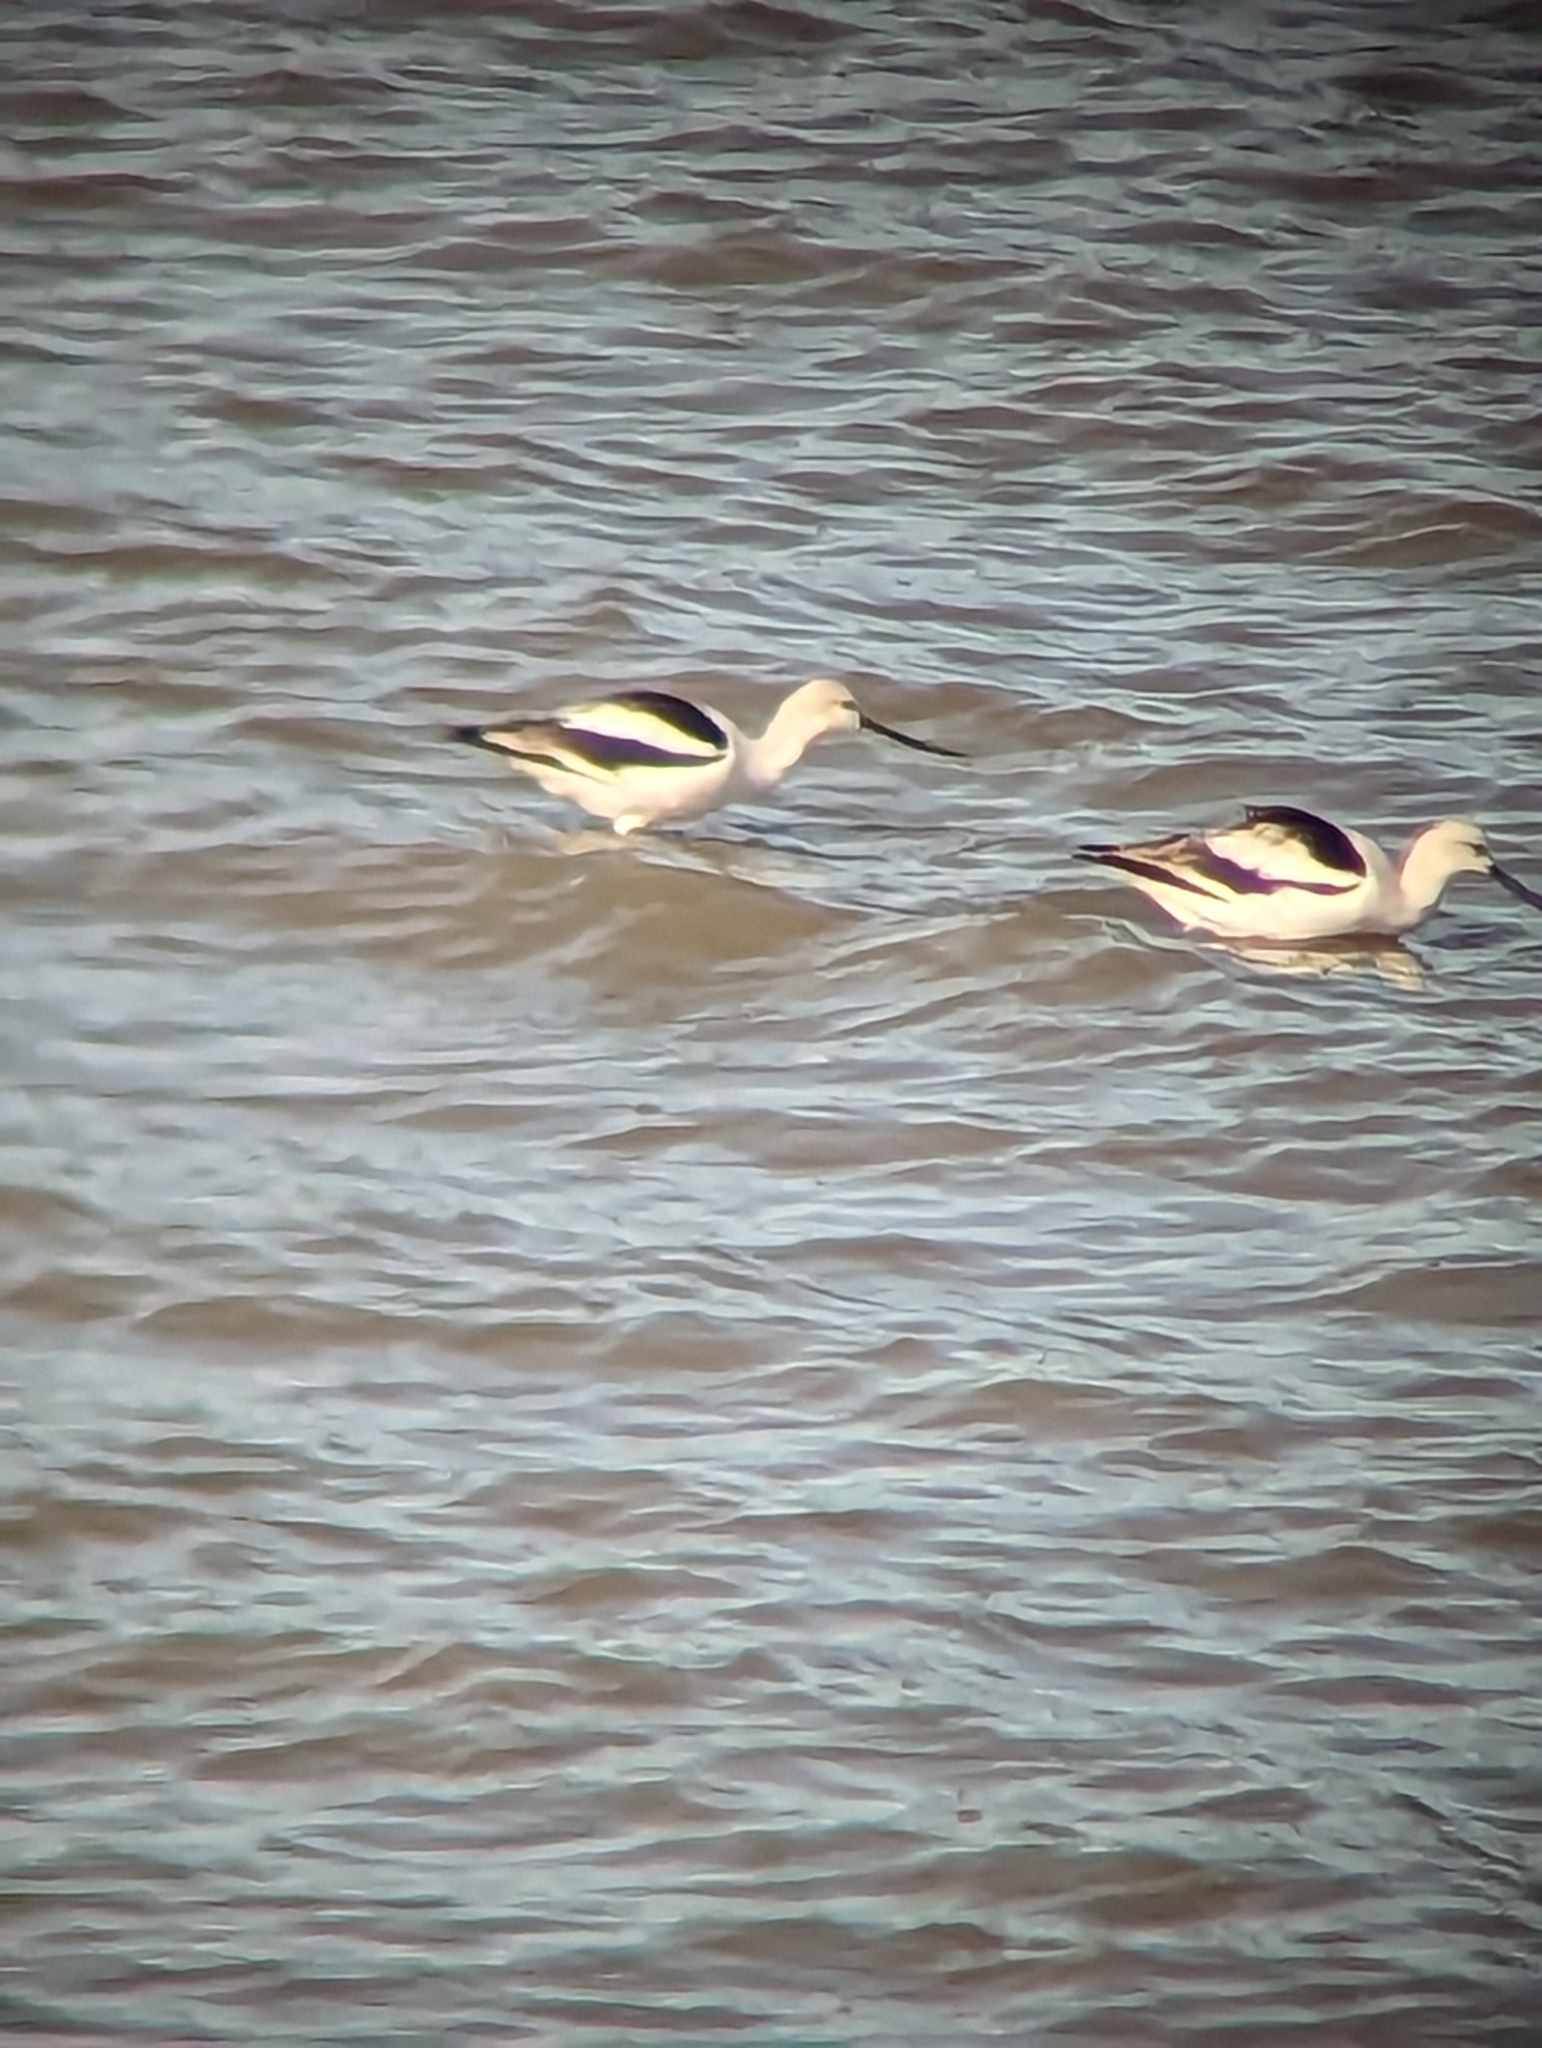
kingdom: Animalia
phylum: Chordata
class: Aves
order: Charadriiformes
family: Recurvirostridae
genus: Recurvirostra
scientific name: Recurvirostra americana
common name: American avocet
